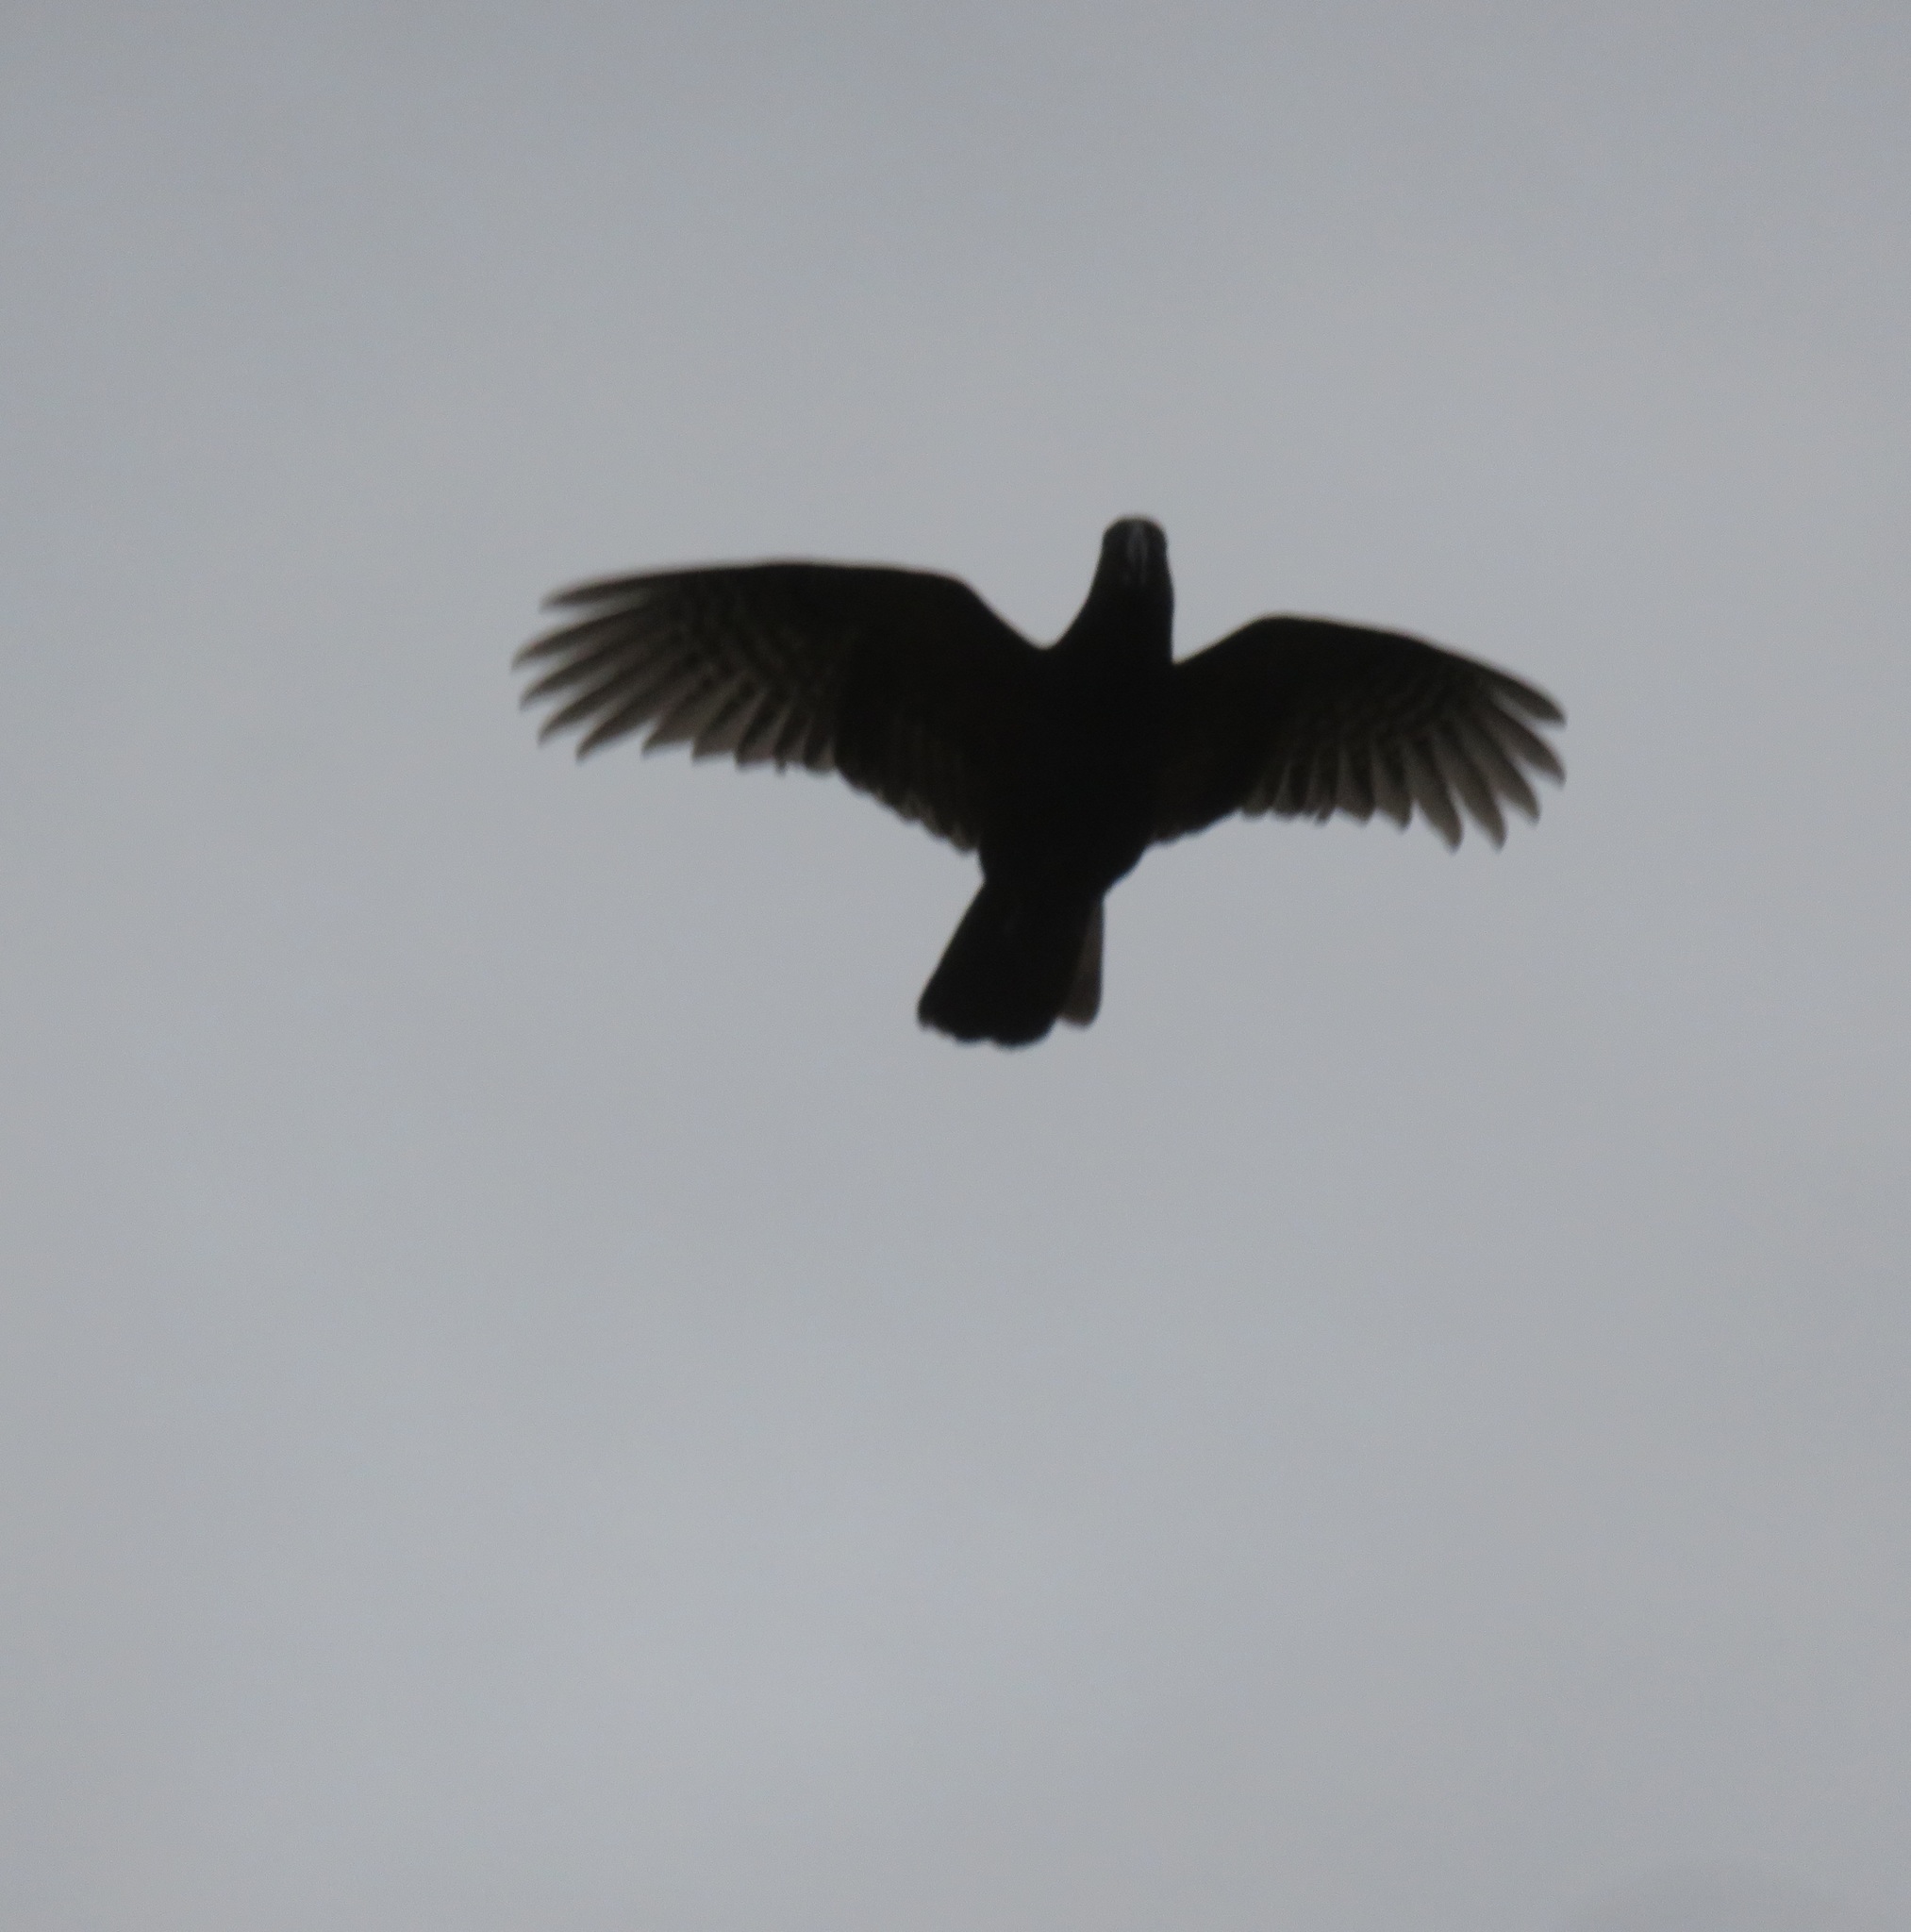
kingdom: Animalia
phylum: Chordata
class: Aves
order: Psittaciformes
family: Psittacidae
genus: Nestor
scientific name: Nestor meridionalis
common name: New zealand kaka
